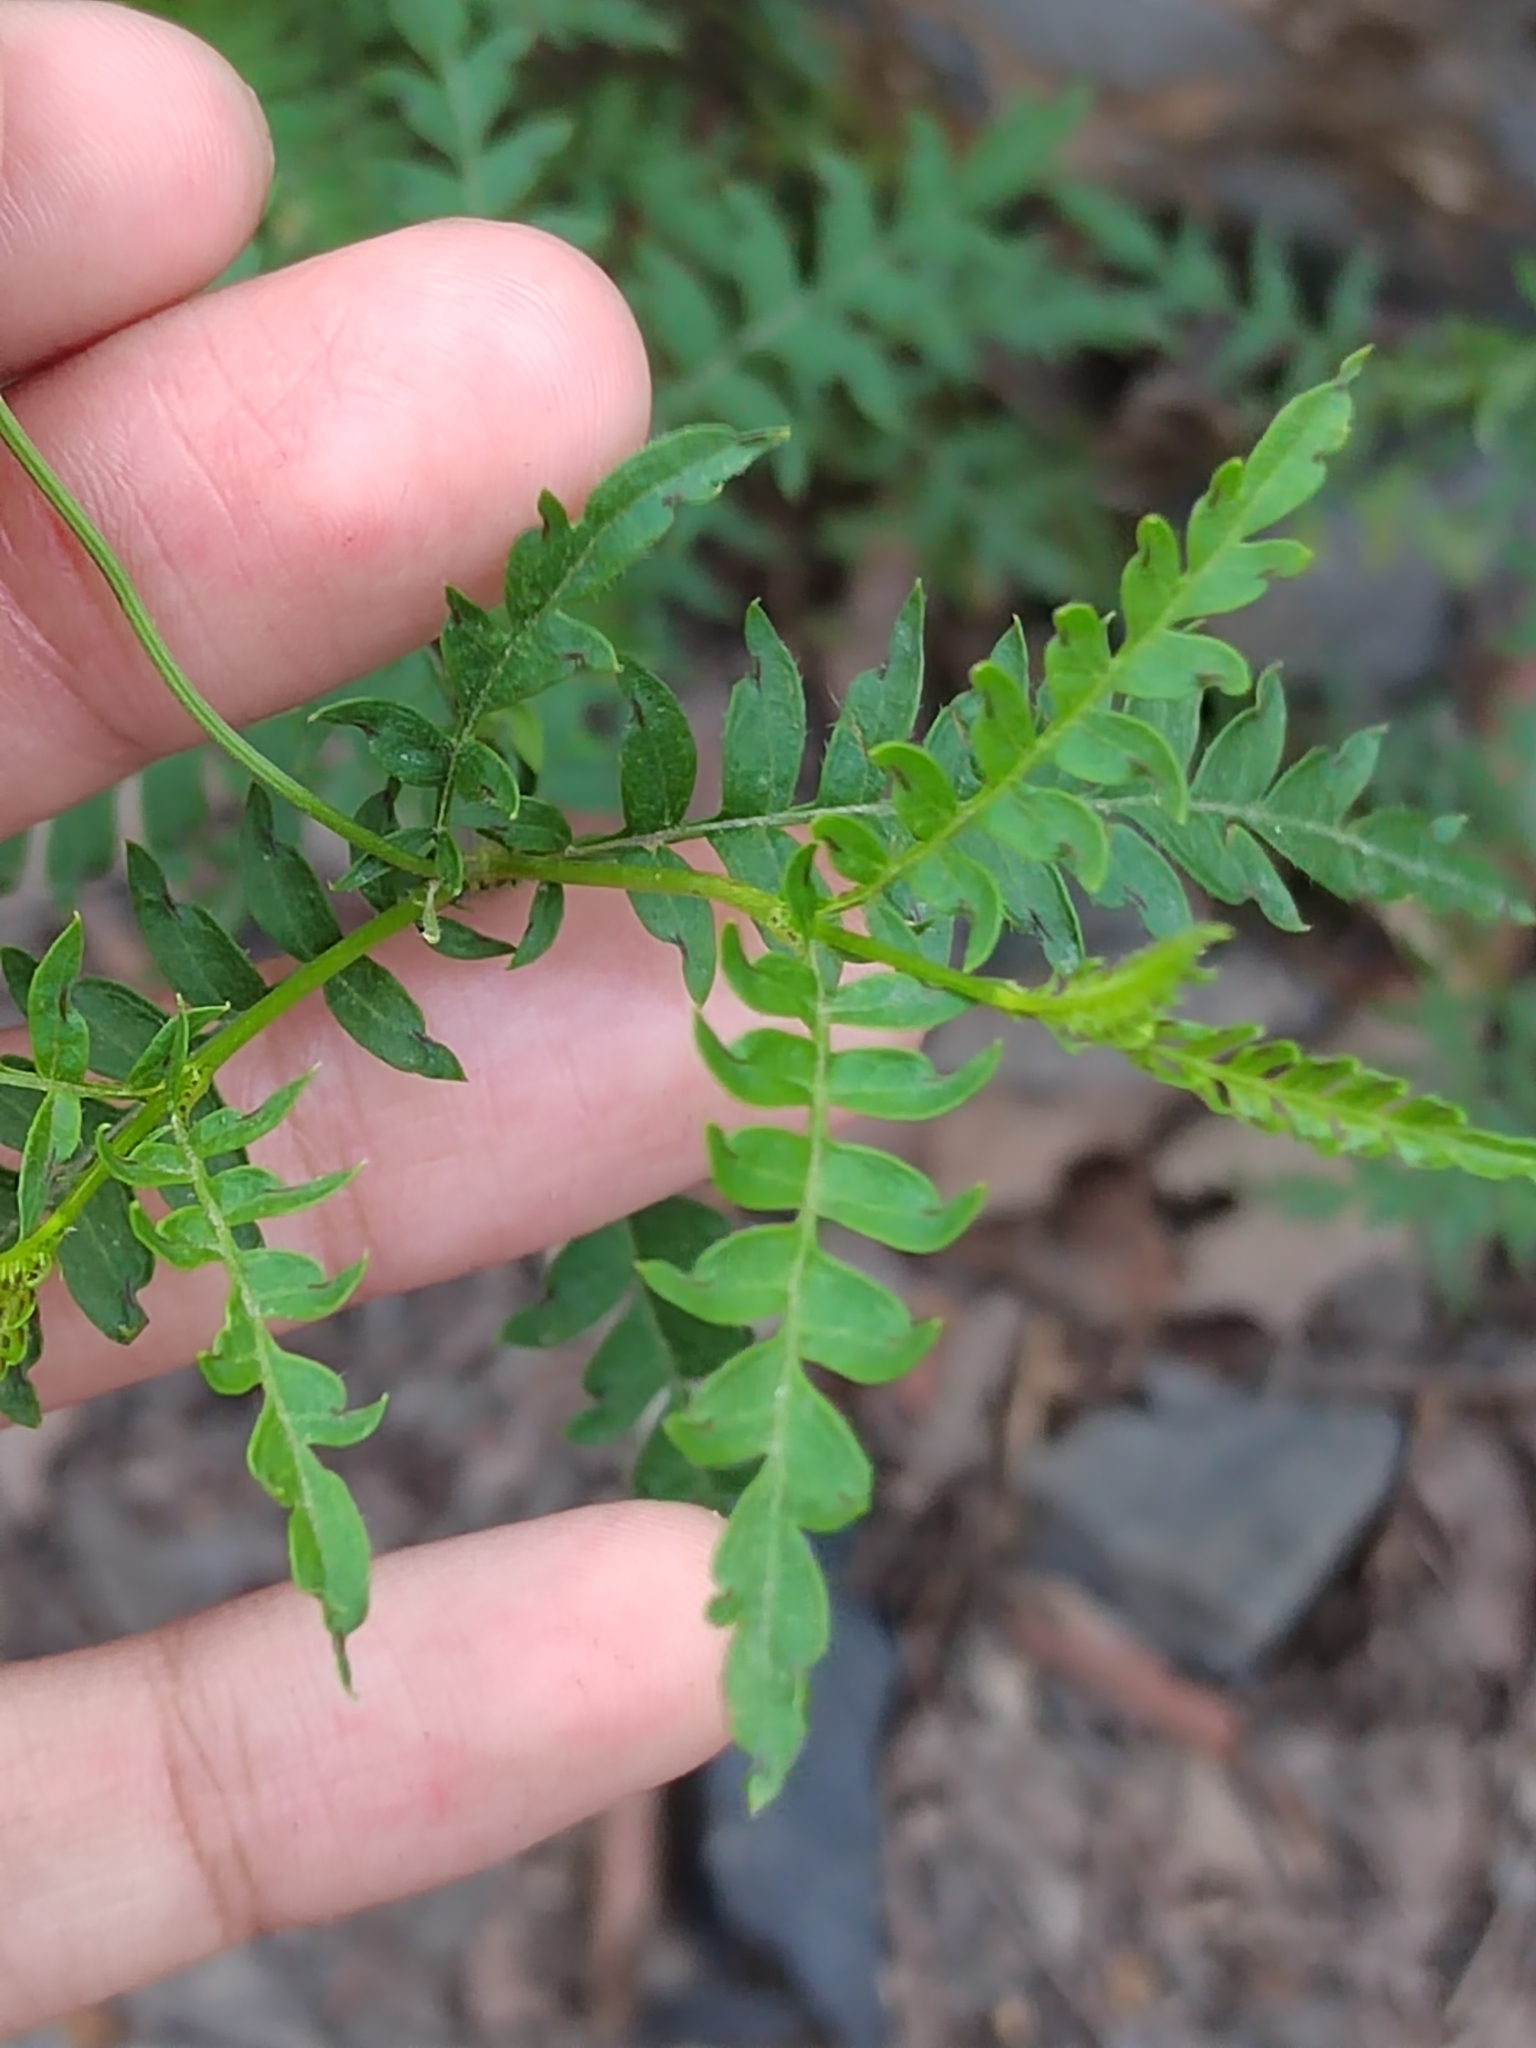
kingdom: Plantae
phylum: Tracheophyta
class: Magnoliopsida
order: Asterales
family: Asteraceae
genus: Chrysactinia
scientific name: Chrysactinia pinnata
